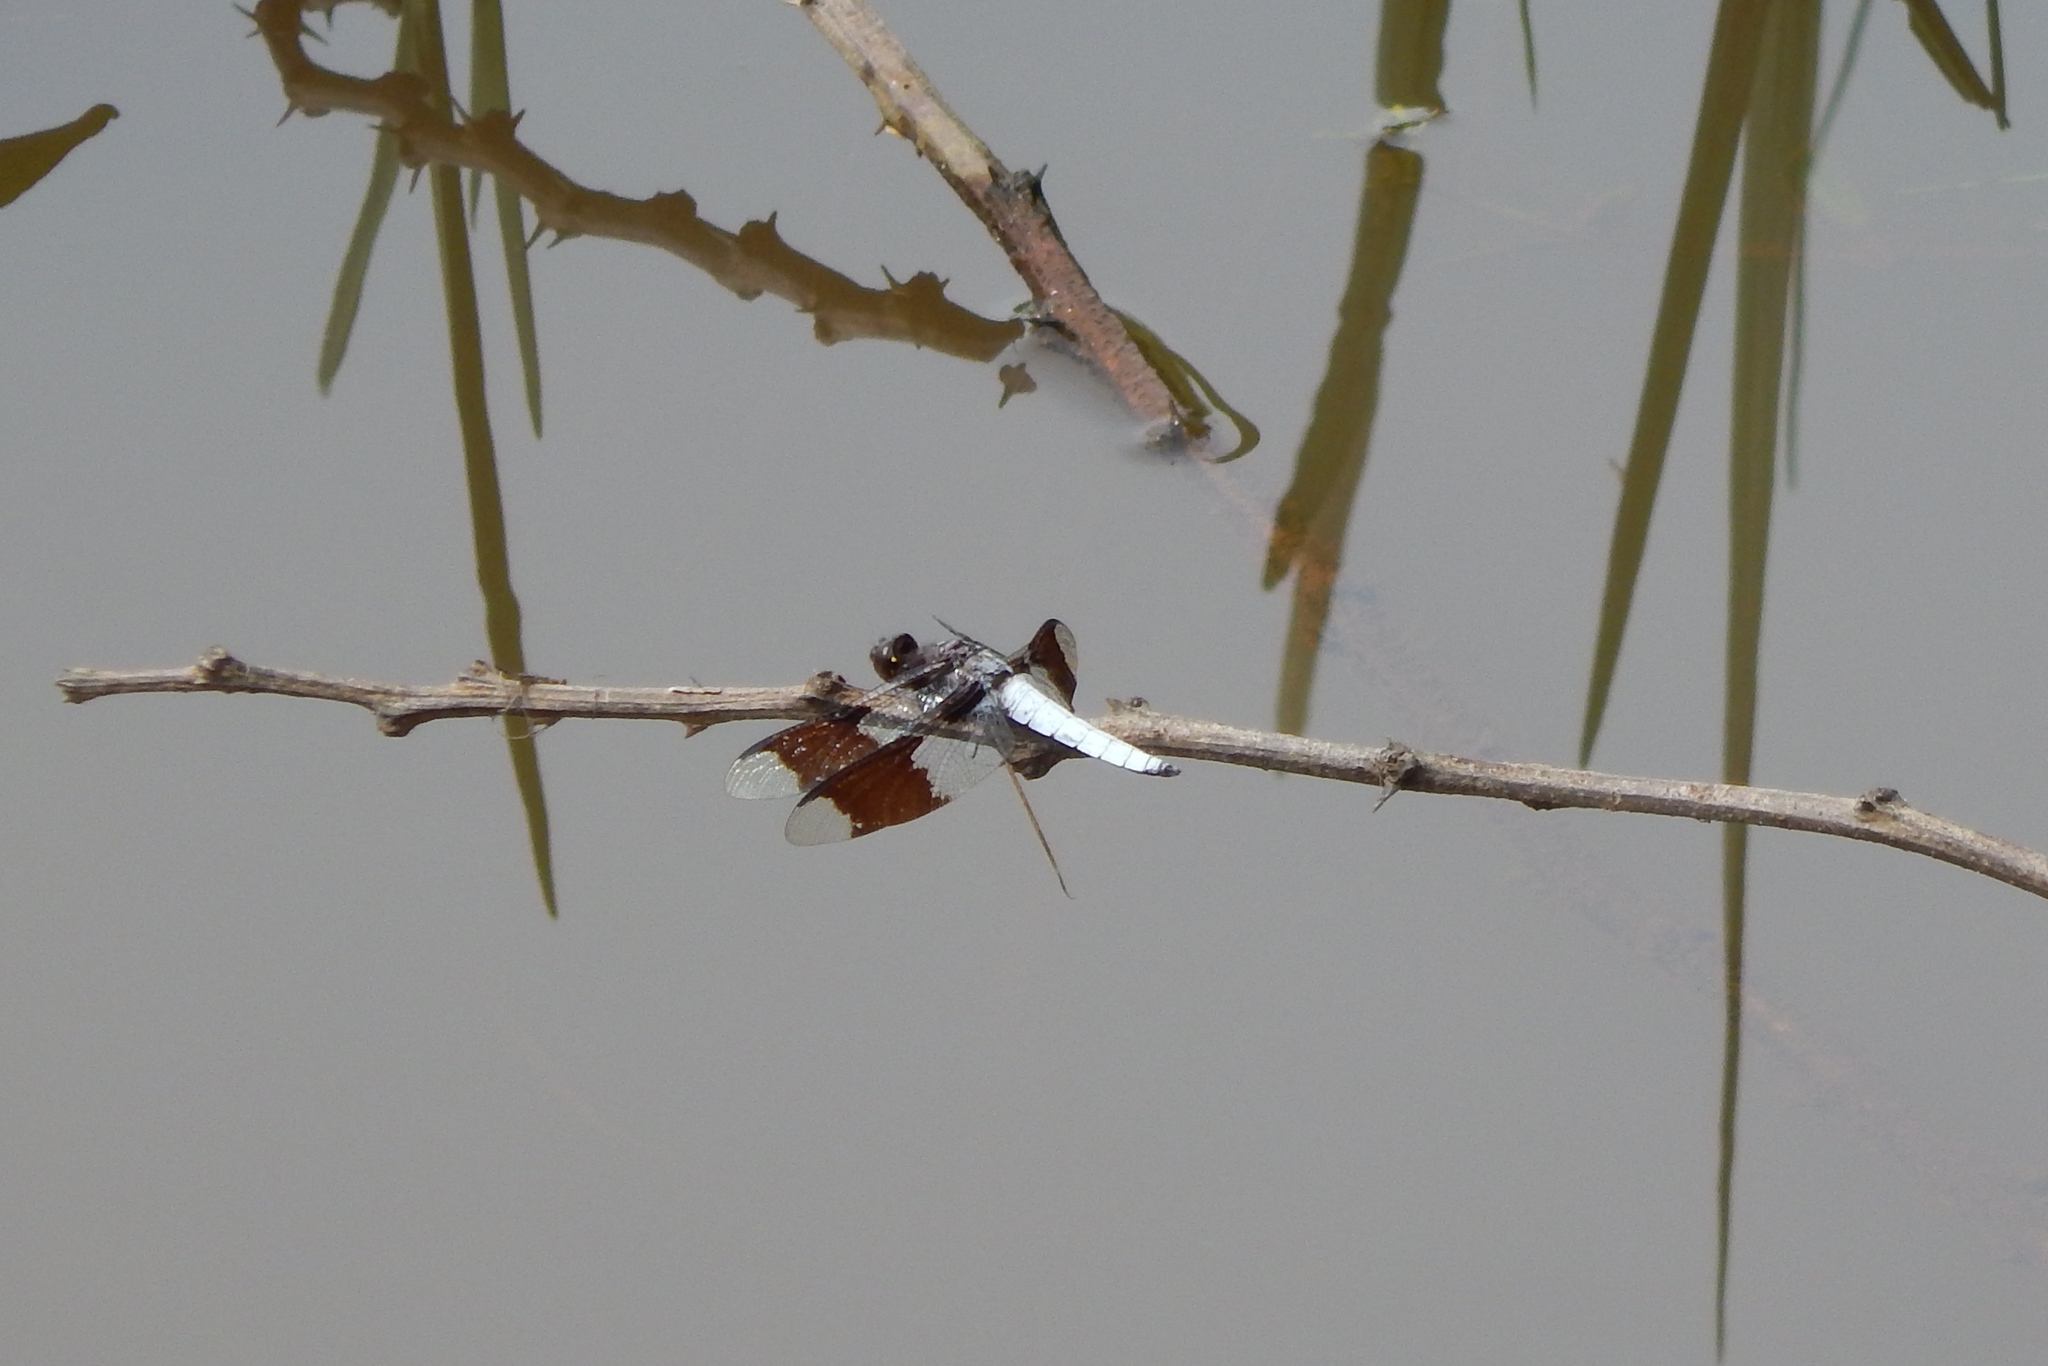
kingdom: Animalia
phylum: Arthropoda
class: Insecta
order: Odonata
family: Libellulidae
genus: Plathemis
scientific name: Plathemis lydia
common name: Common whitetail
